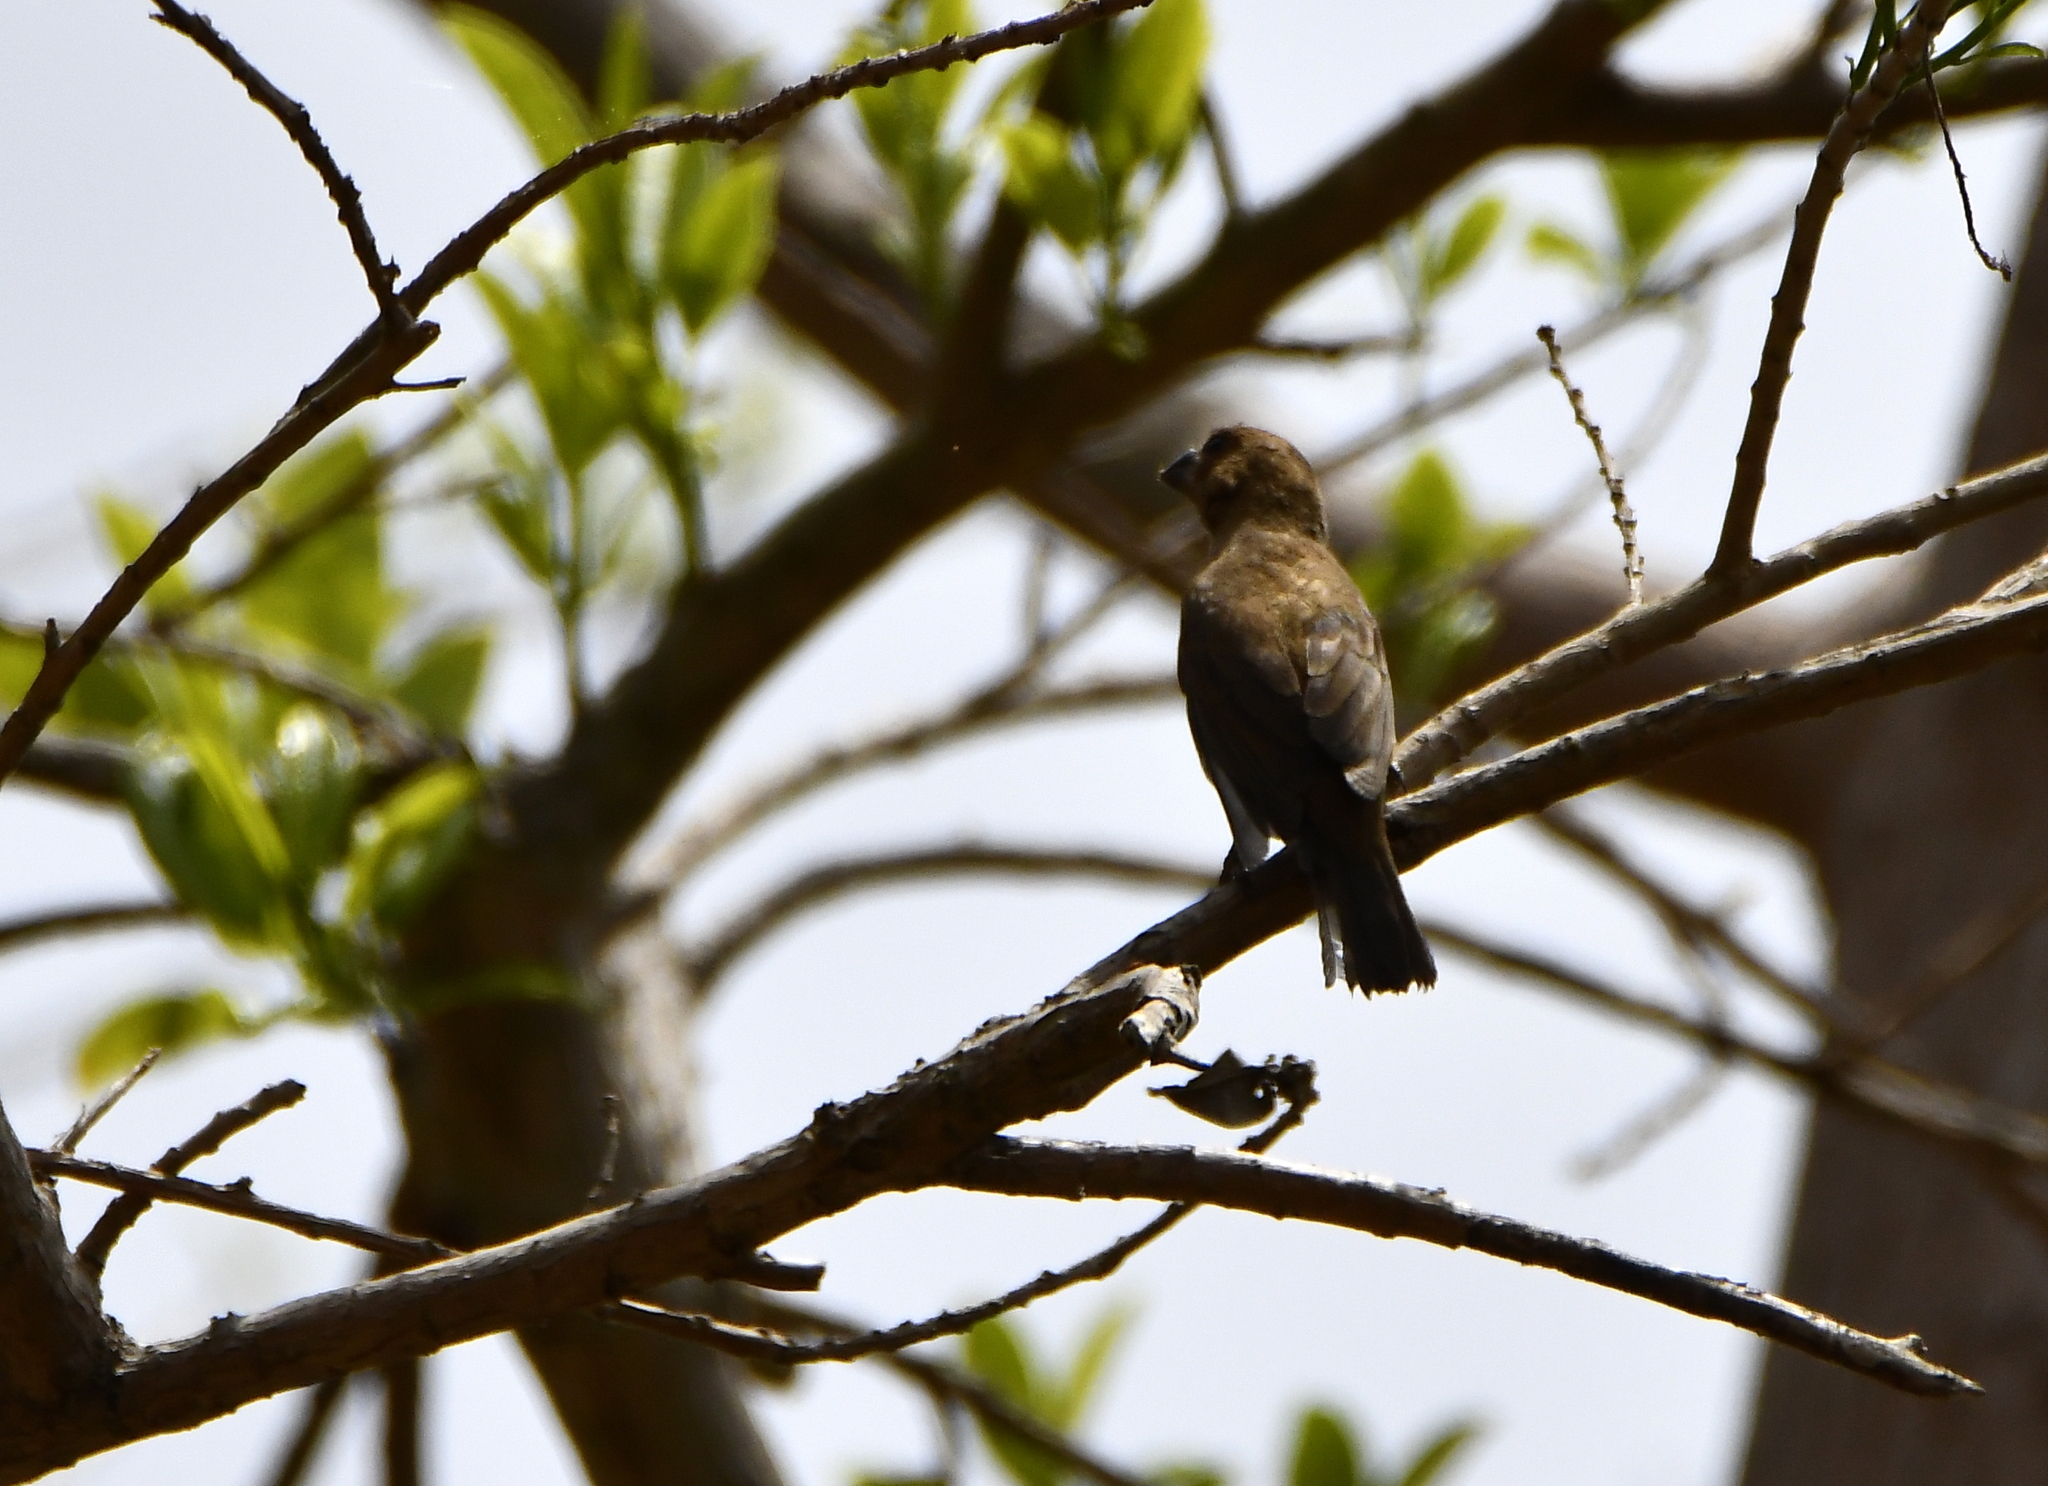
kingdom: Animalia
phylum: Chordata
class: Aves
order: Passeriformes
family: Thraupidae
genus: Sporophila
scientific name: Sporophila torqueola
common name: White-collared seedeater
